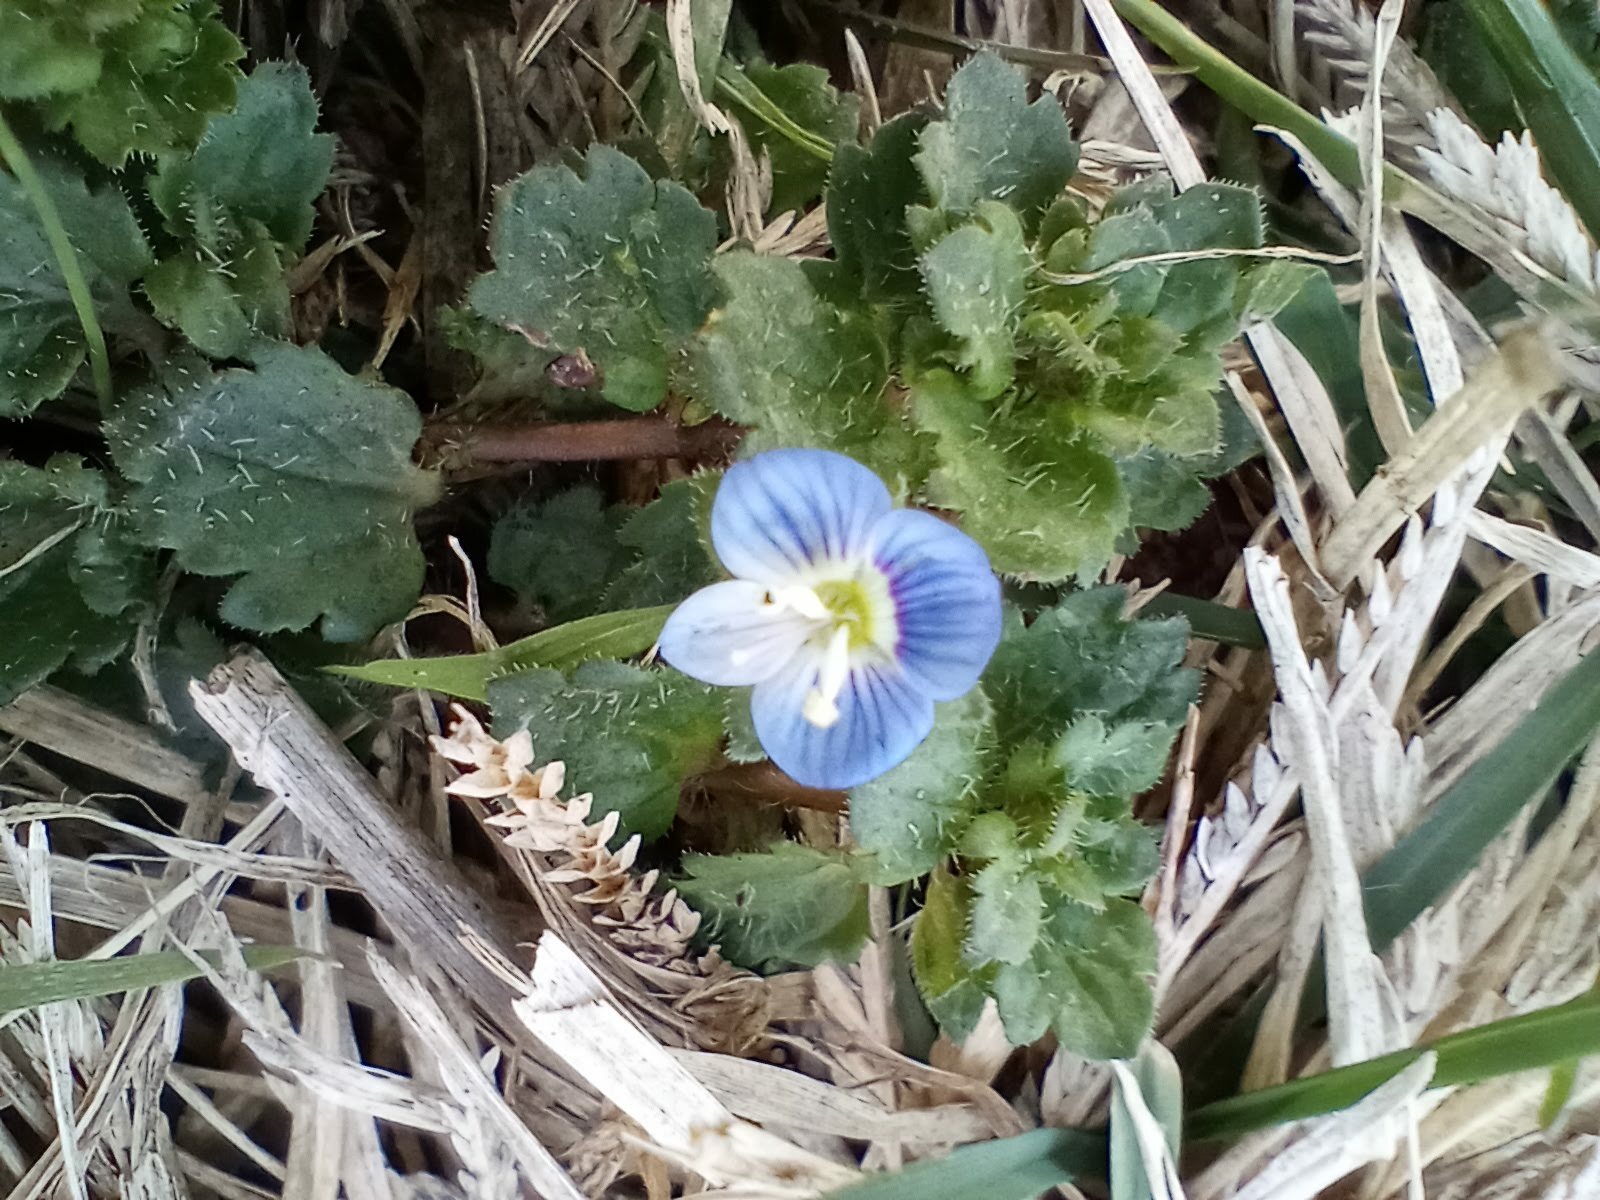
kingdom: Plantae
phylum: Tracheophyta
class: Magnoliopsida
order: Lamiales
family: Plantaginaceae
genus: Veronica
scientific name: Veronica persica
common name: Common field-speedwell
